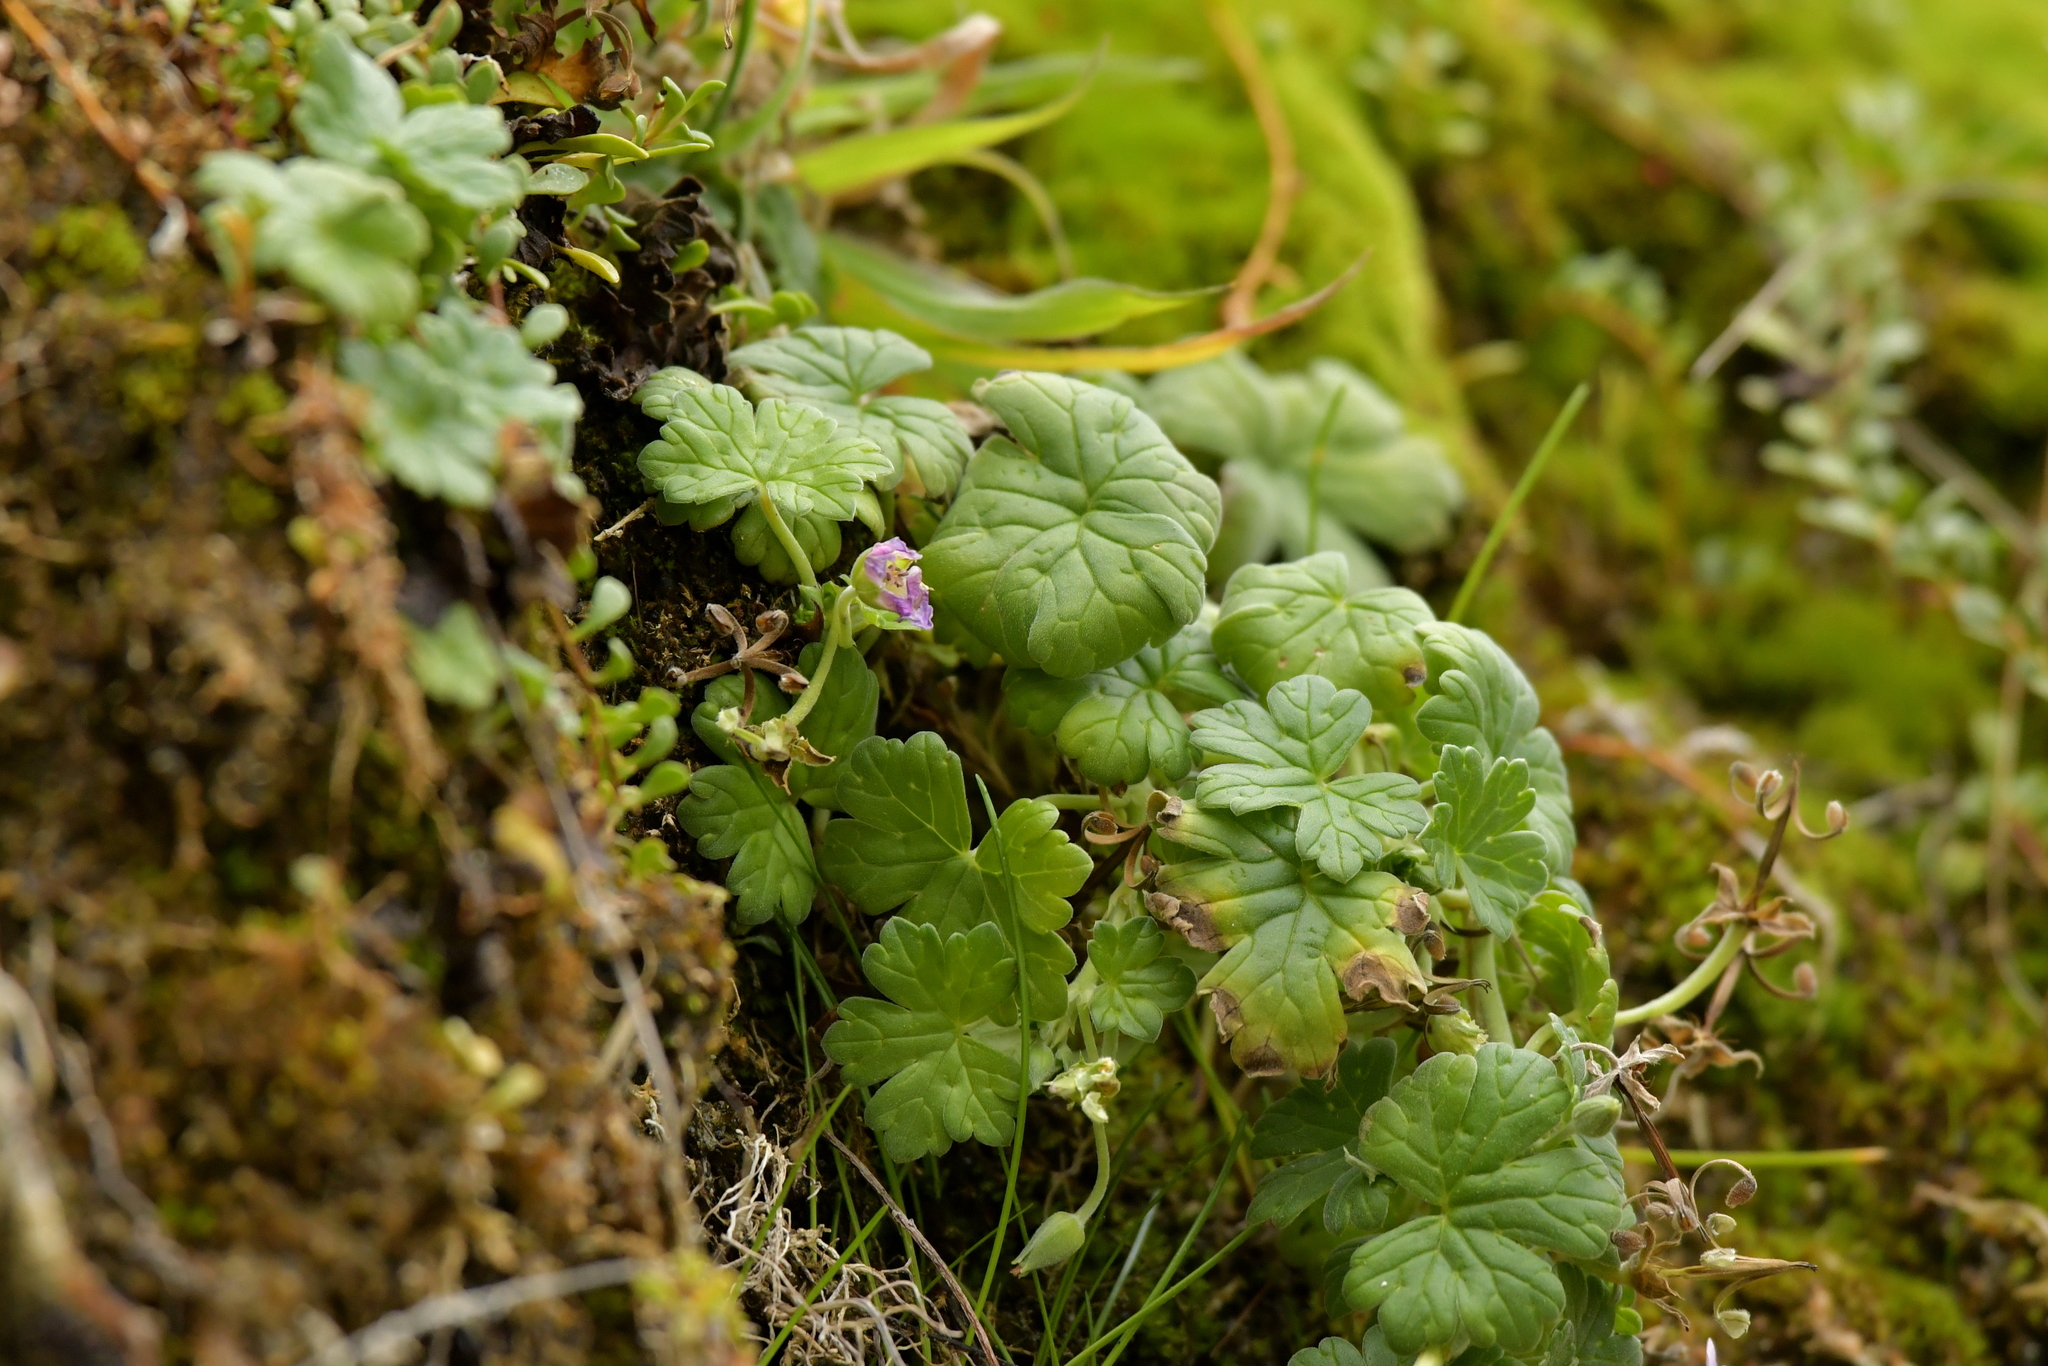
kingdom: Plantae
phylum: Tracheophyta
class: Magnoliopsida
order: Geraniales
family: Geraniaceae
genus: Geranium
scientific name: Geranium traversii
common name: Cranesbill
